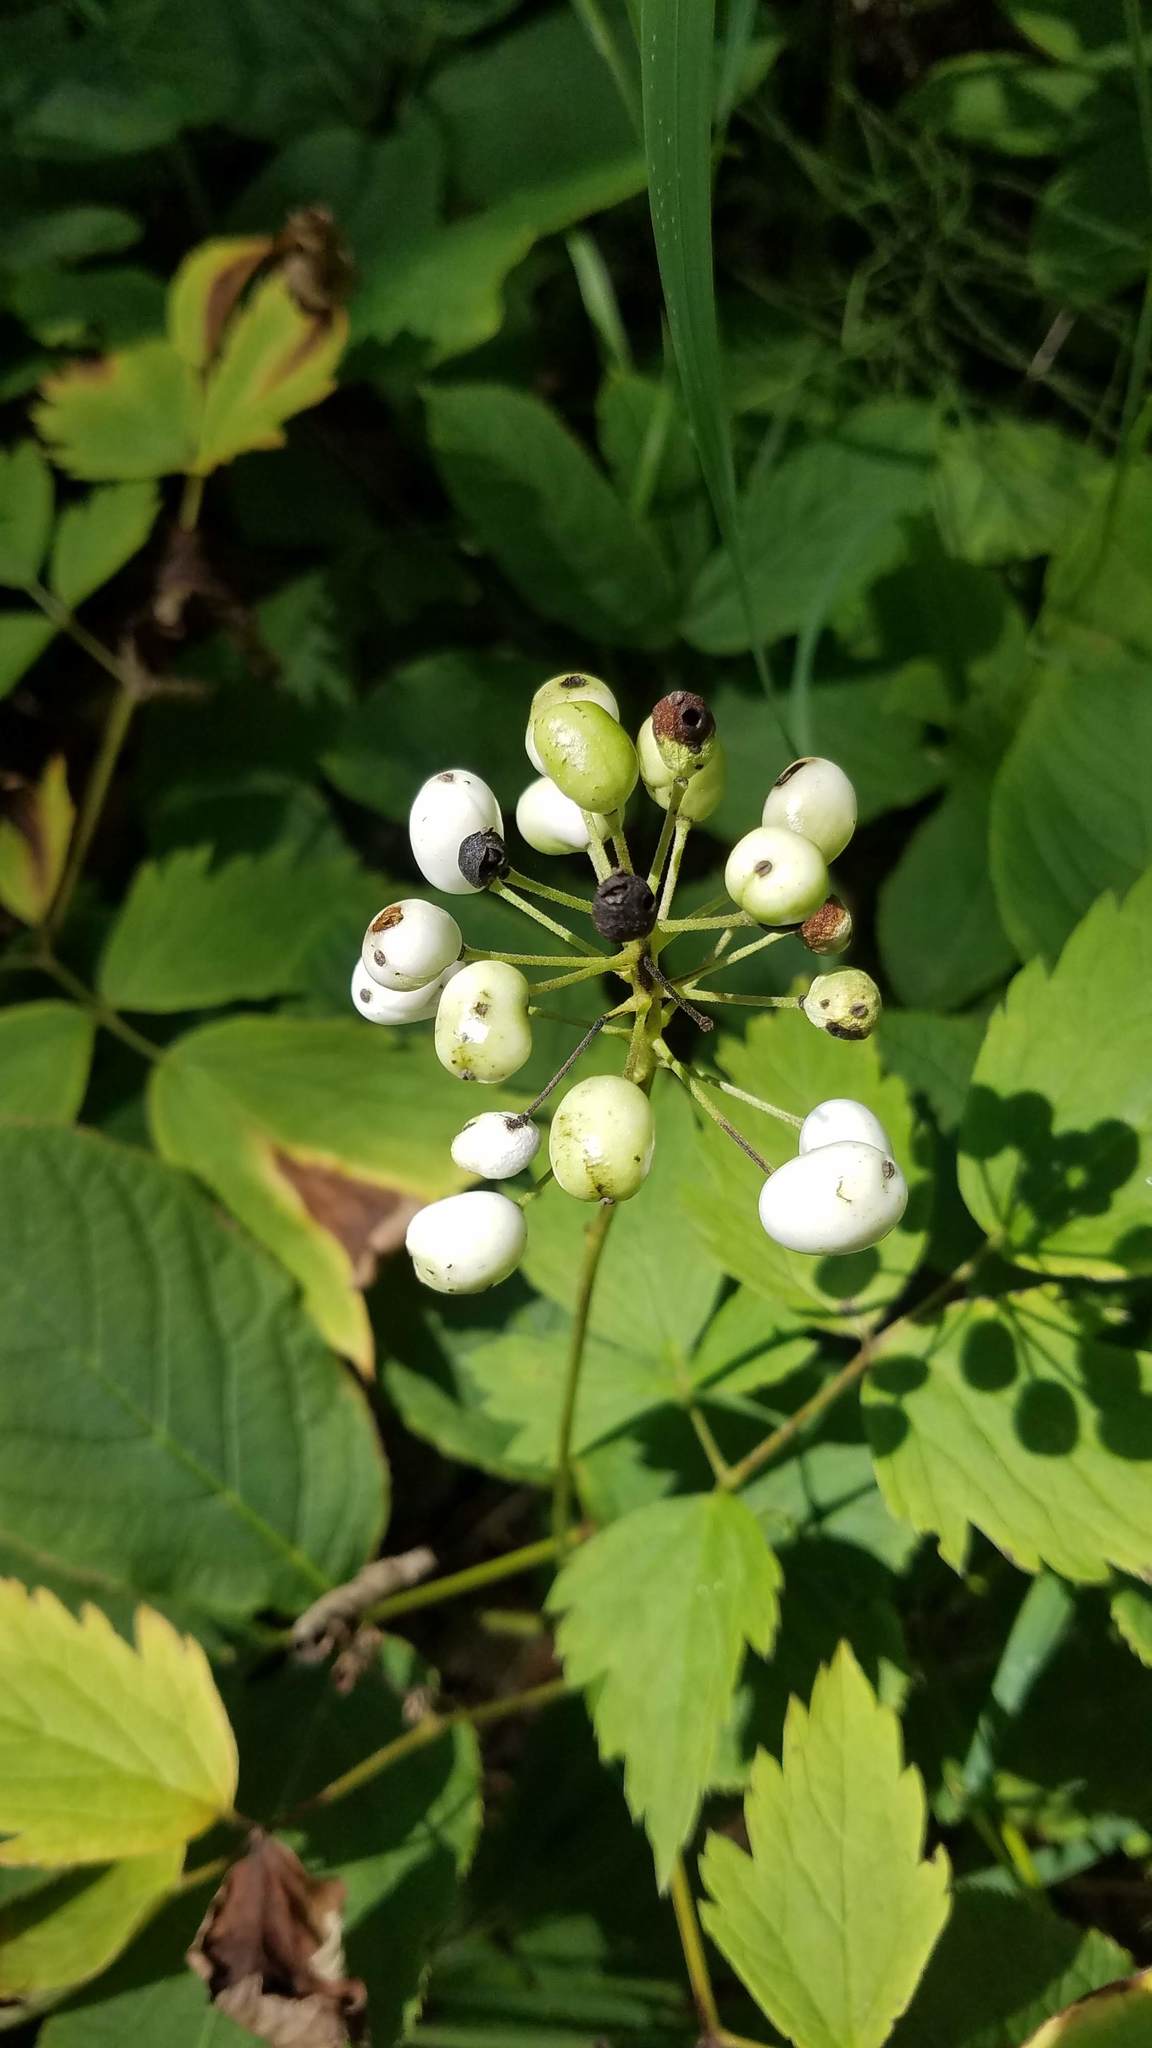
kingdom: Plantae
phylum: Tracheophyta
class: Magnoliopsida
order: Ranunculales
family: Ranunculaceae
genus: Actaea
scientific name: Actaea rubra
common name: Red baneberry
